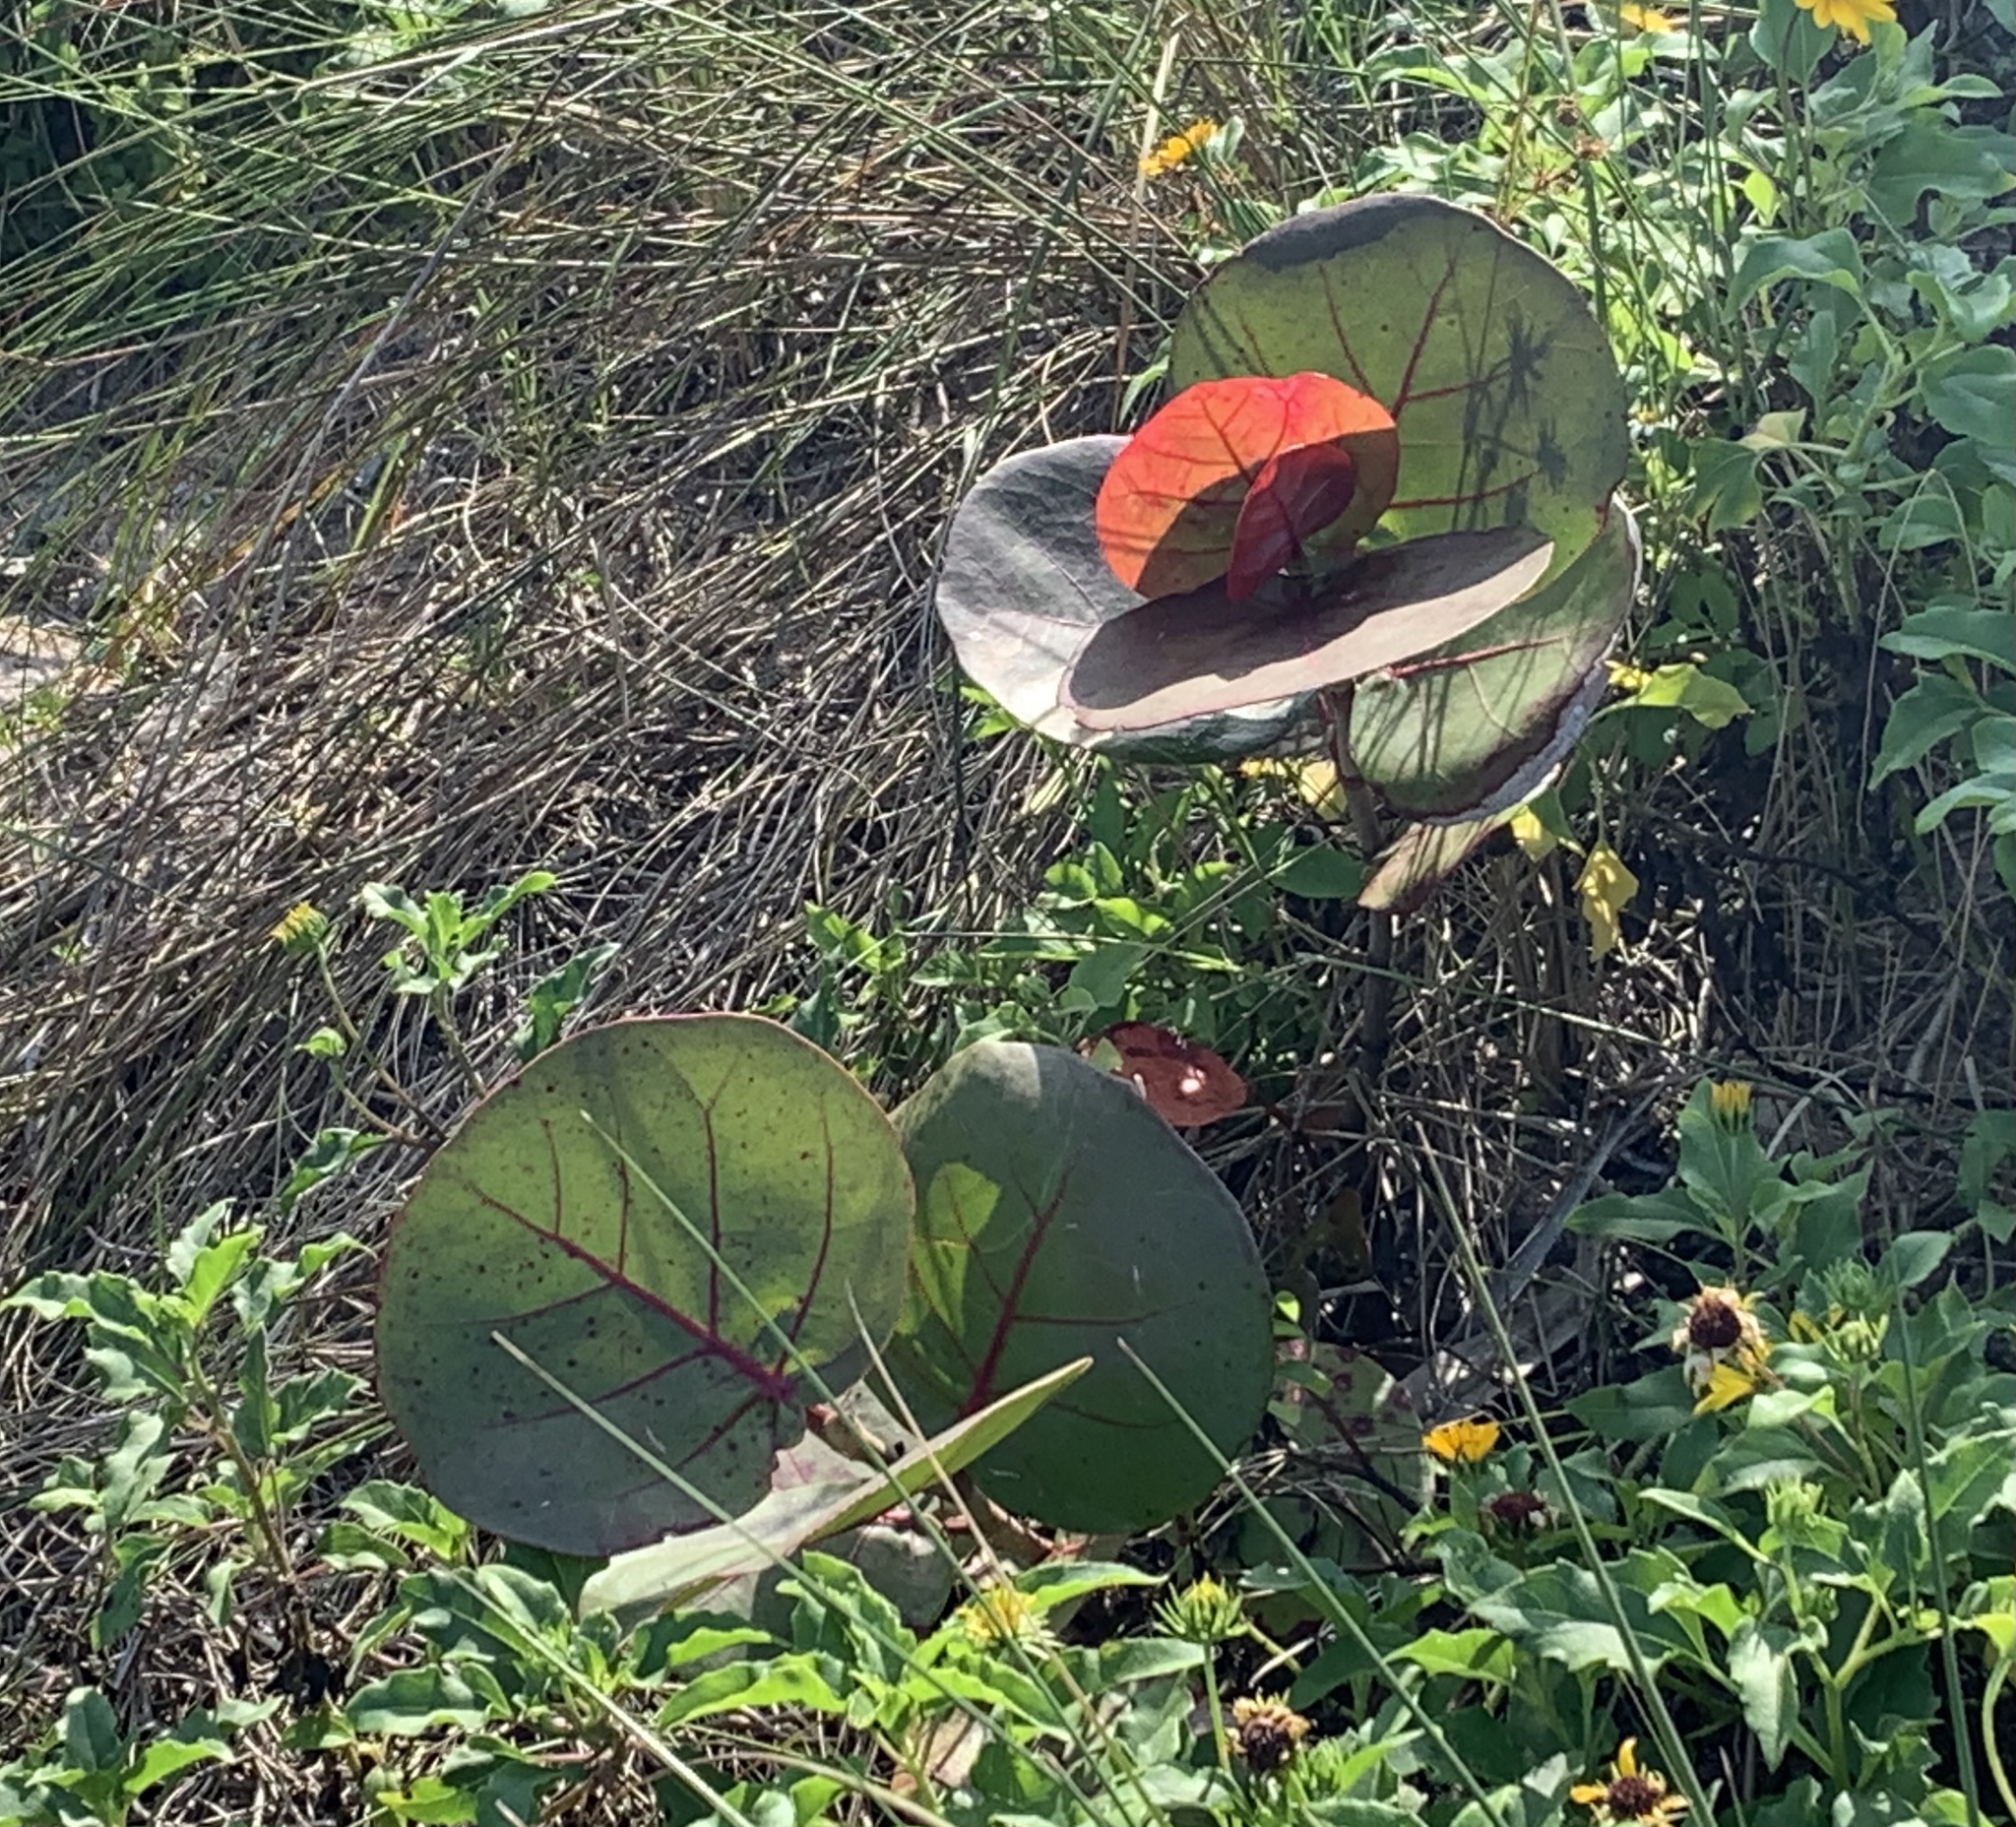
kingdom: Plantae
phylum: Tracheophyta
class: Magnoliopsida
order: Caryophyllales
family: Polygonaceae
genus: Coccoloba
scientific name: Coccoloba uvifera
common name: Seagrape
